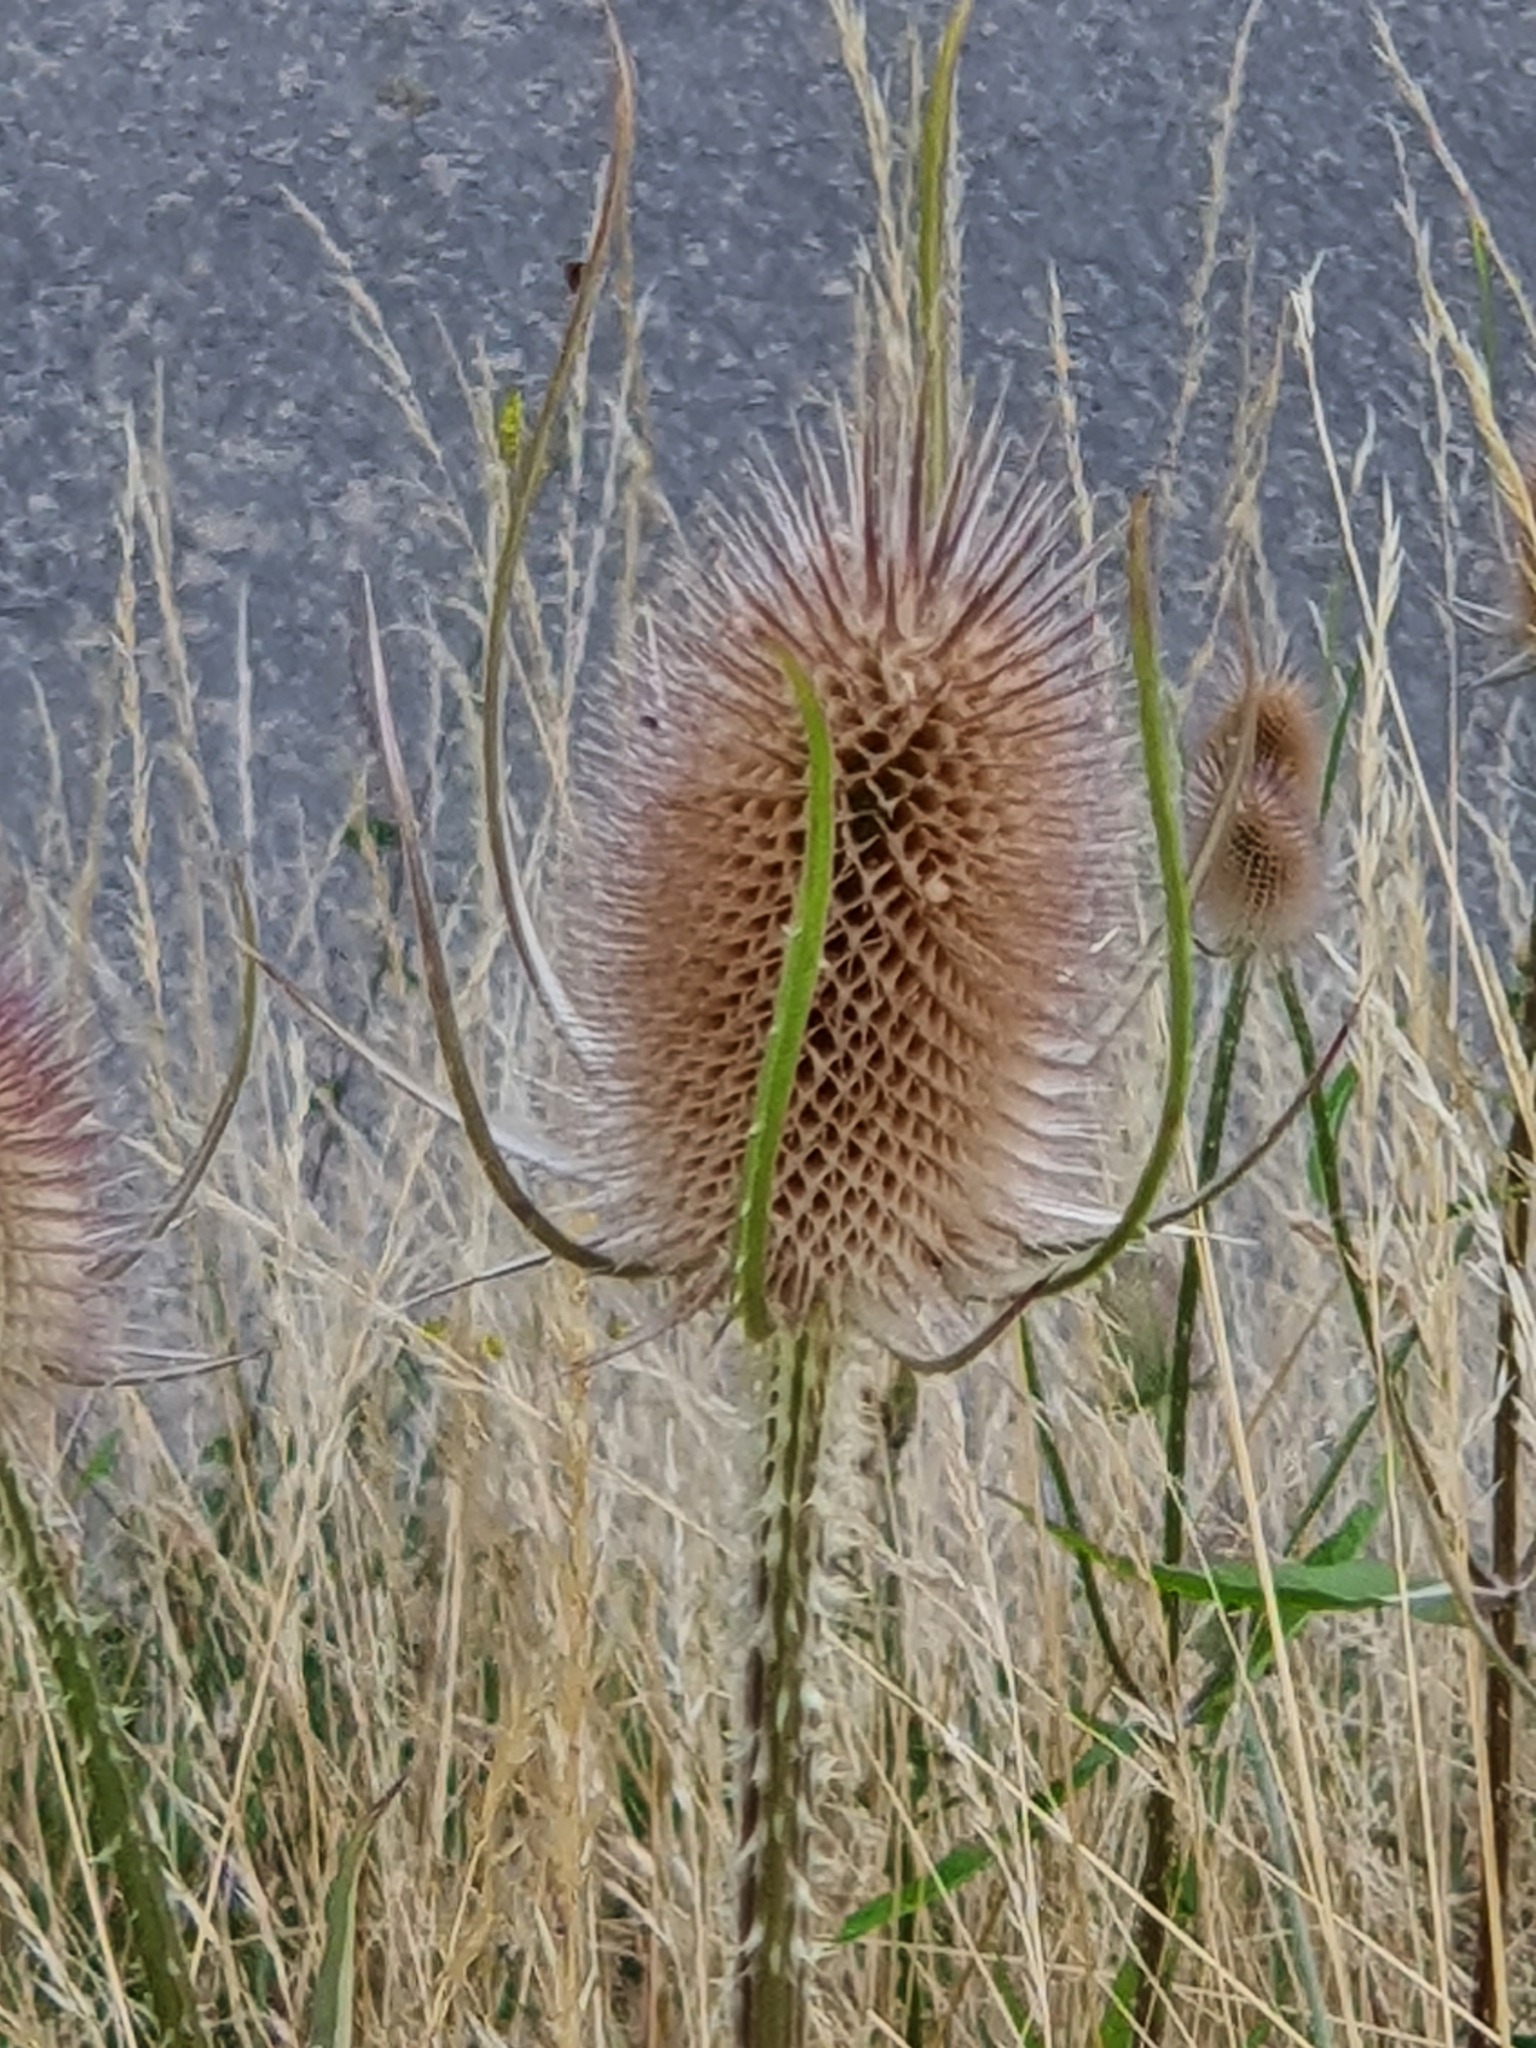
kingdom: Plantae
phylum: Tracheophyta
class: Magnoliopsida
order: Dipsacales
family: Caprifoliaceae
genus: Dipsacus
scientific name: Dipsacus fullonum
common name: Teasel
